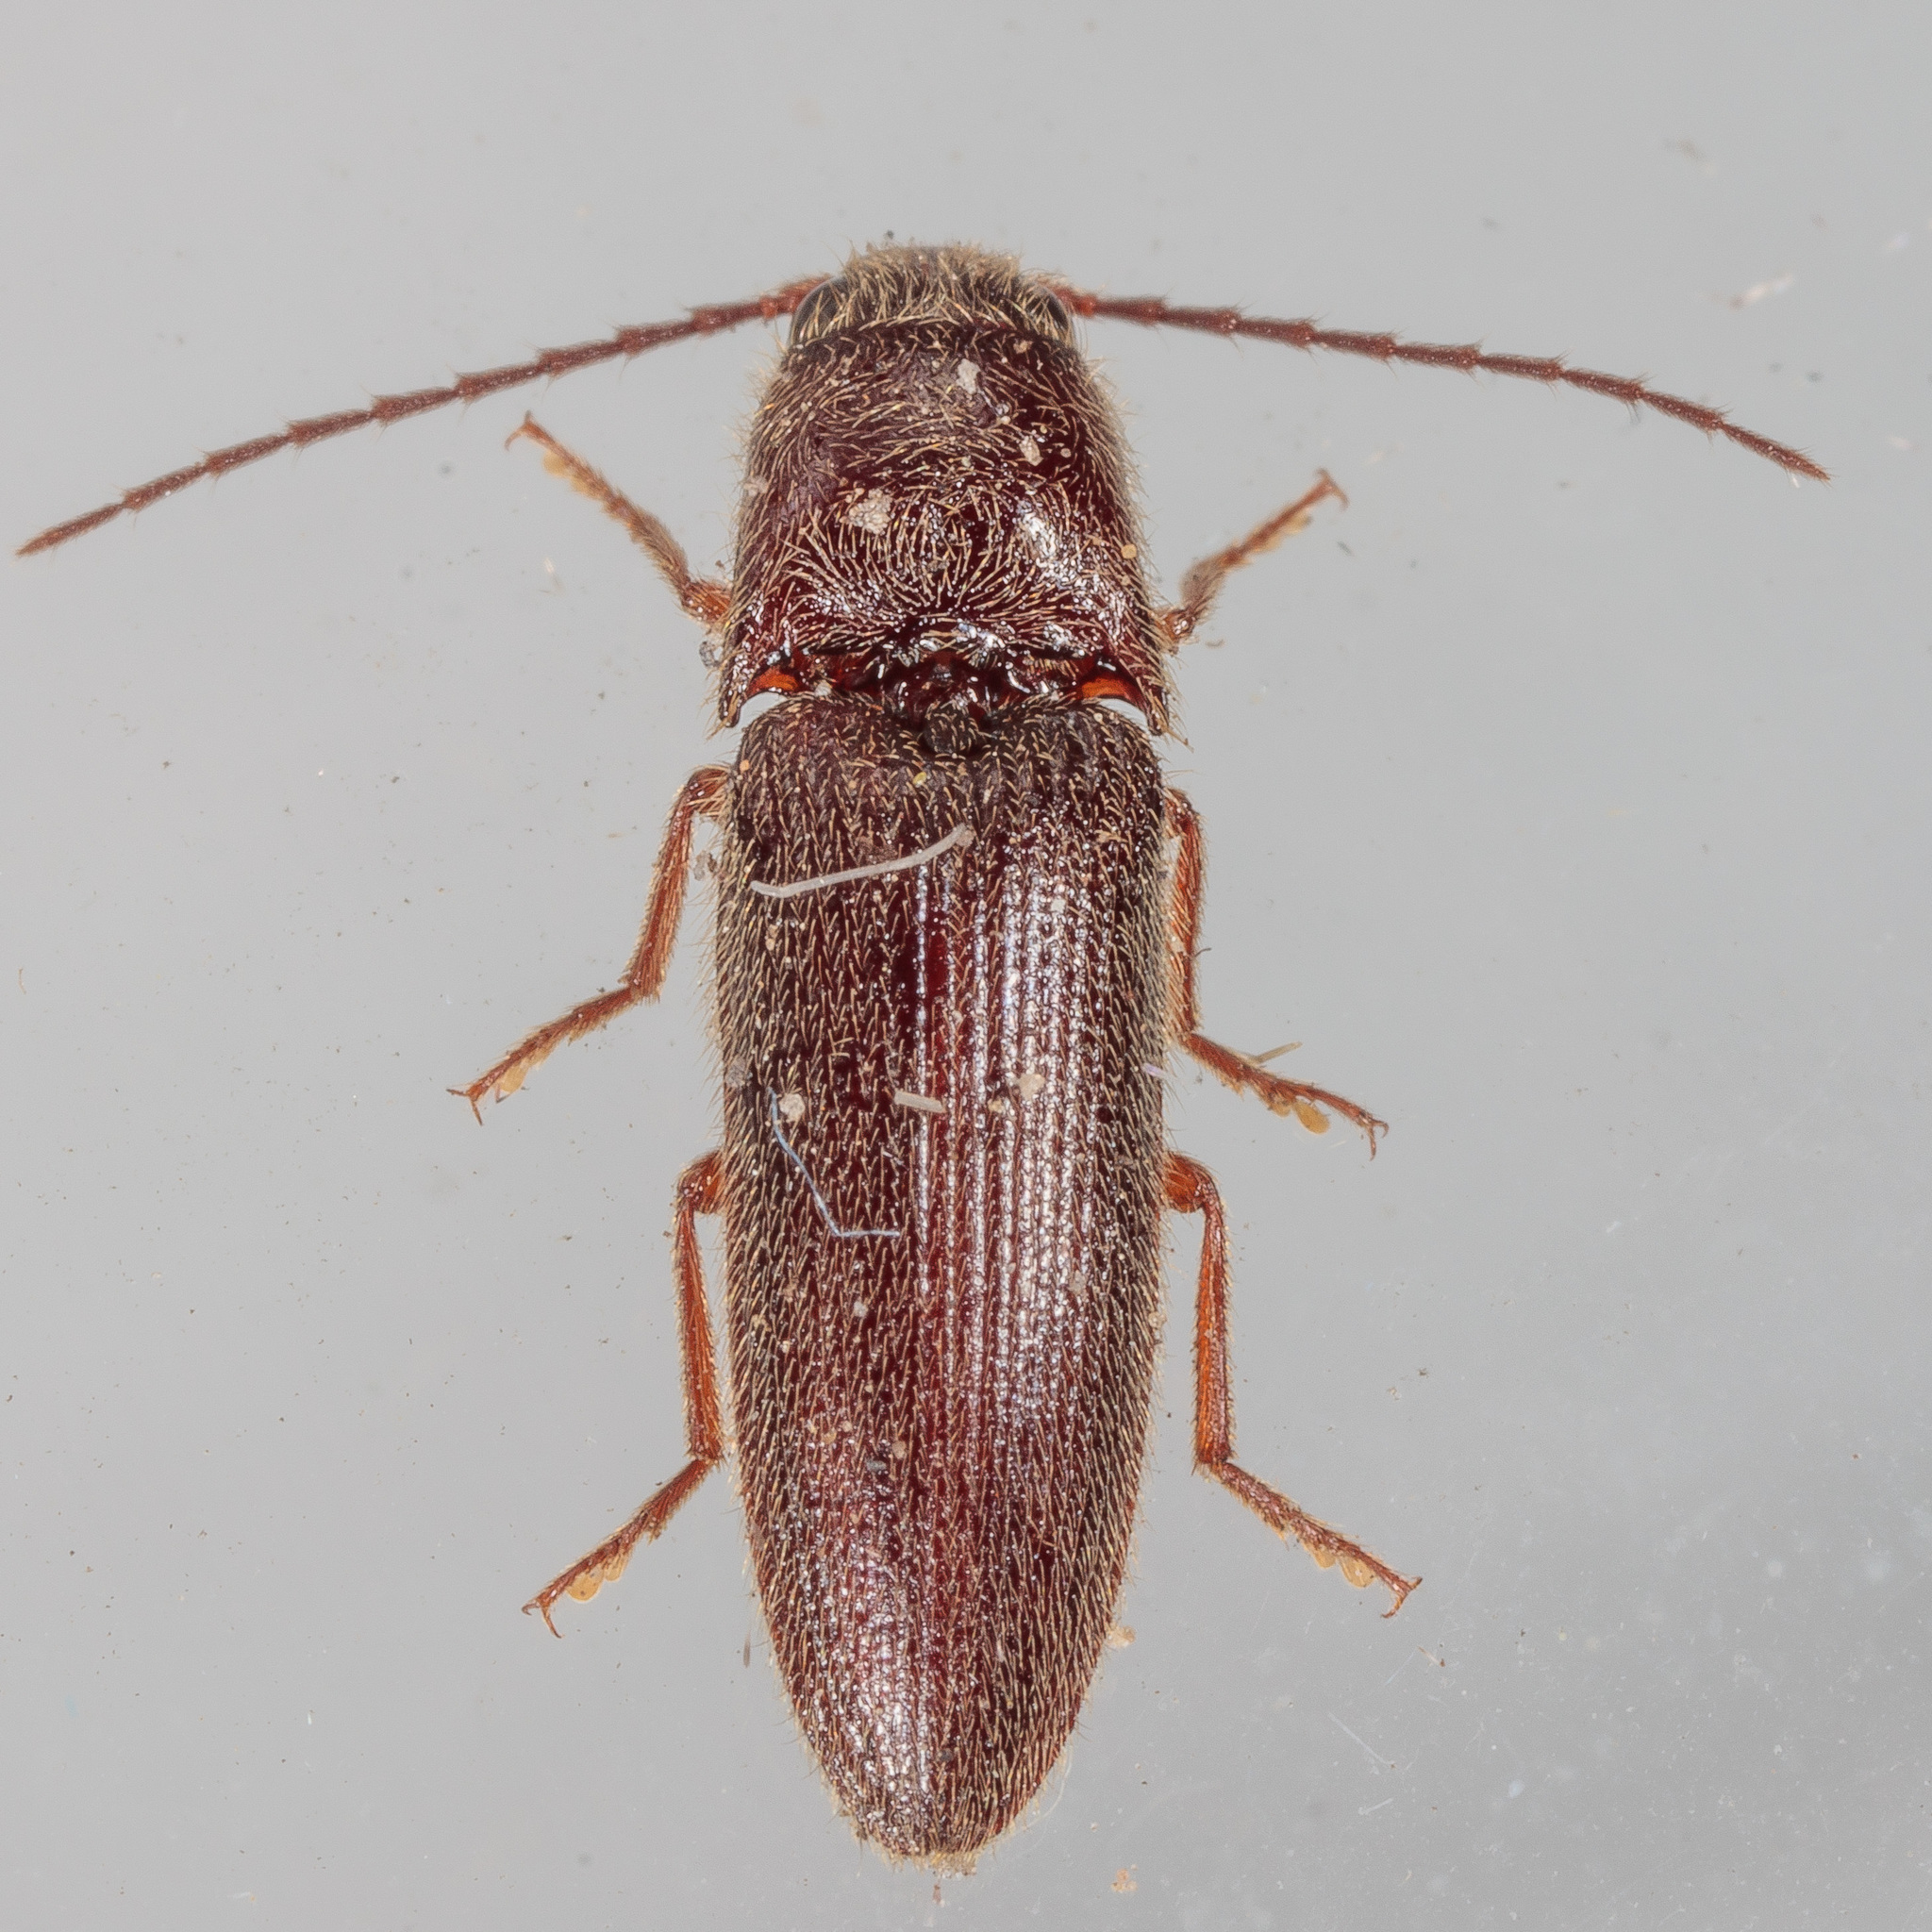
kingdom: Animalia
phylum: Arthropoda
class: Insecta
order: Coleoptera
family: Elateridae
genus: Dipropus
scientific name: Dipropus
